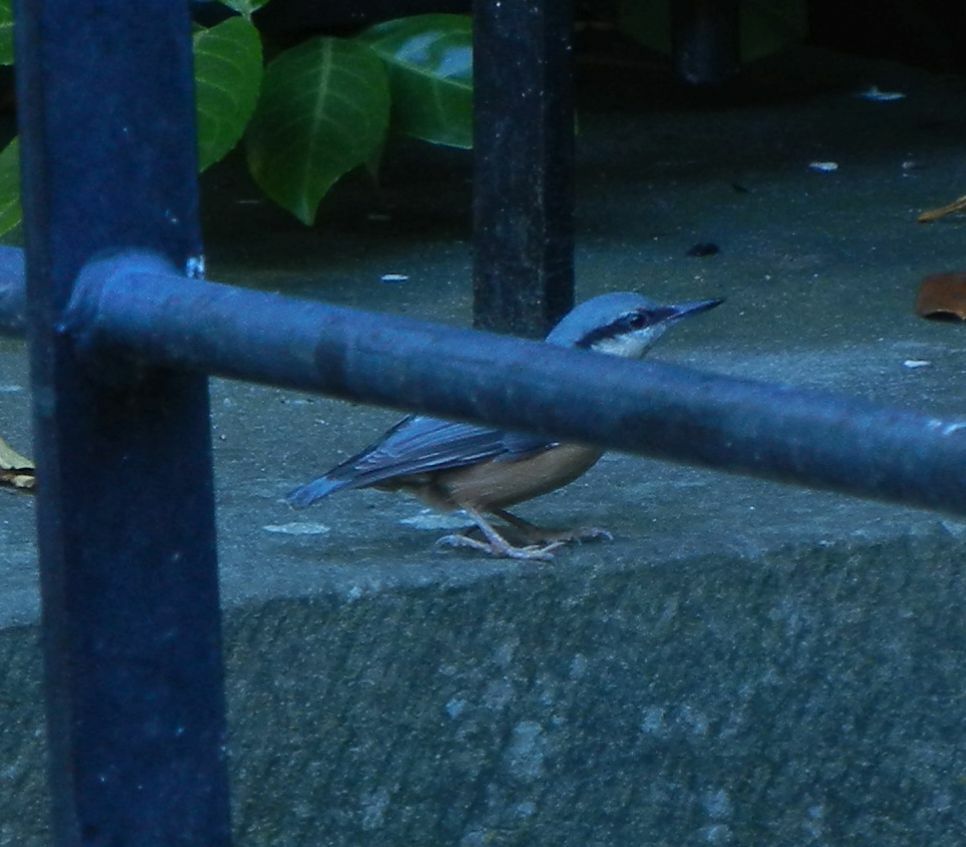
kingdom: Animalia
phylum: Chordata
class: Aves
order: Passeriformes
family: Sittidae
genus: Sitta
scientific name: Sitta europaea
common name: Eurasian nuthatch
